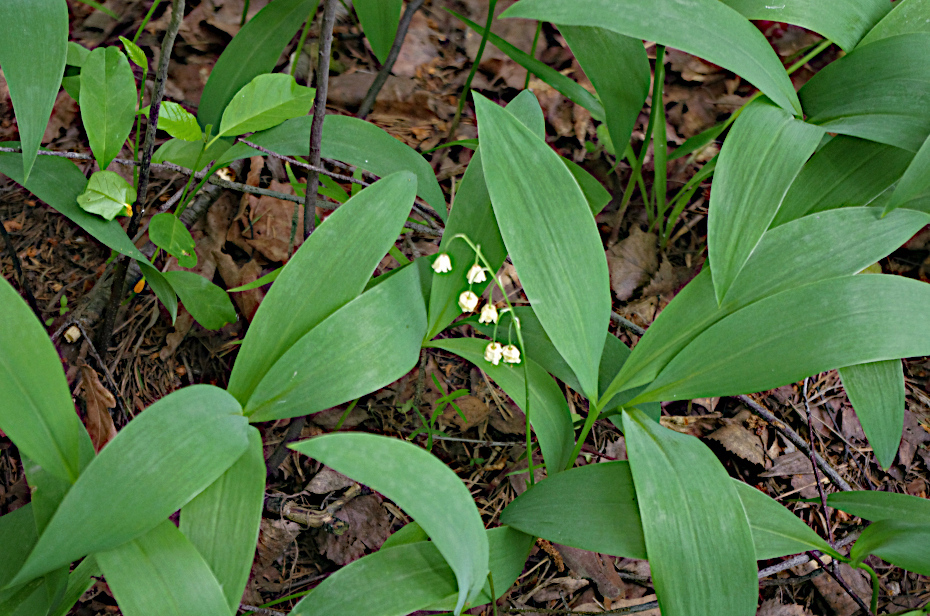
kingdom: Plantae
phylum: Tracheophyta
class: Liliopsida
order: Asparagales
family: Asparagaceae
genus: Convallaria
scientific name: Convallaria majalis
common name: Lily-of-the-valley
